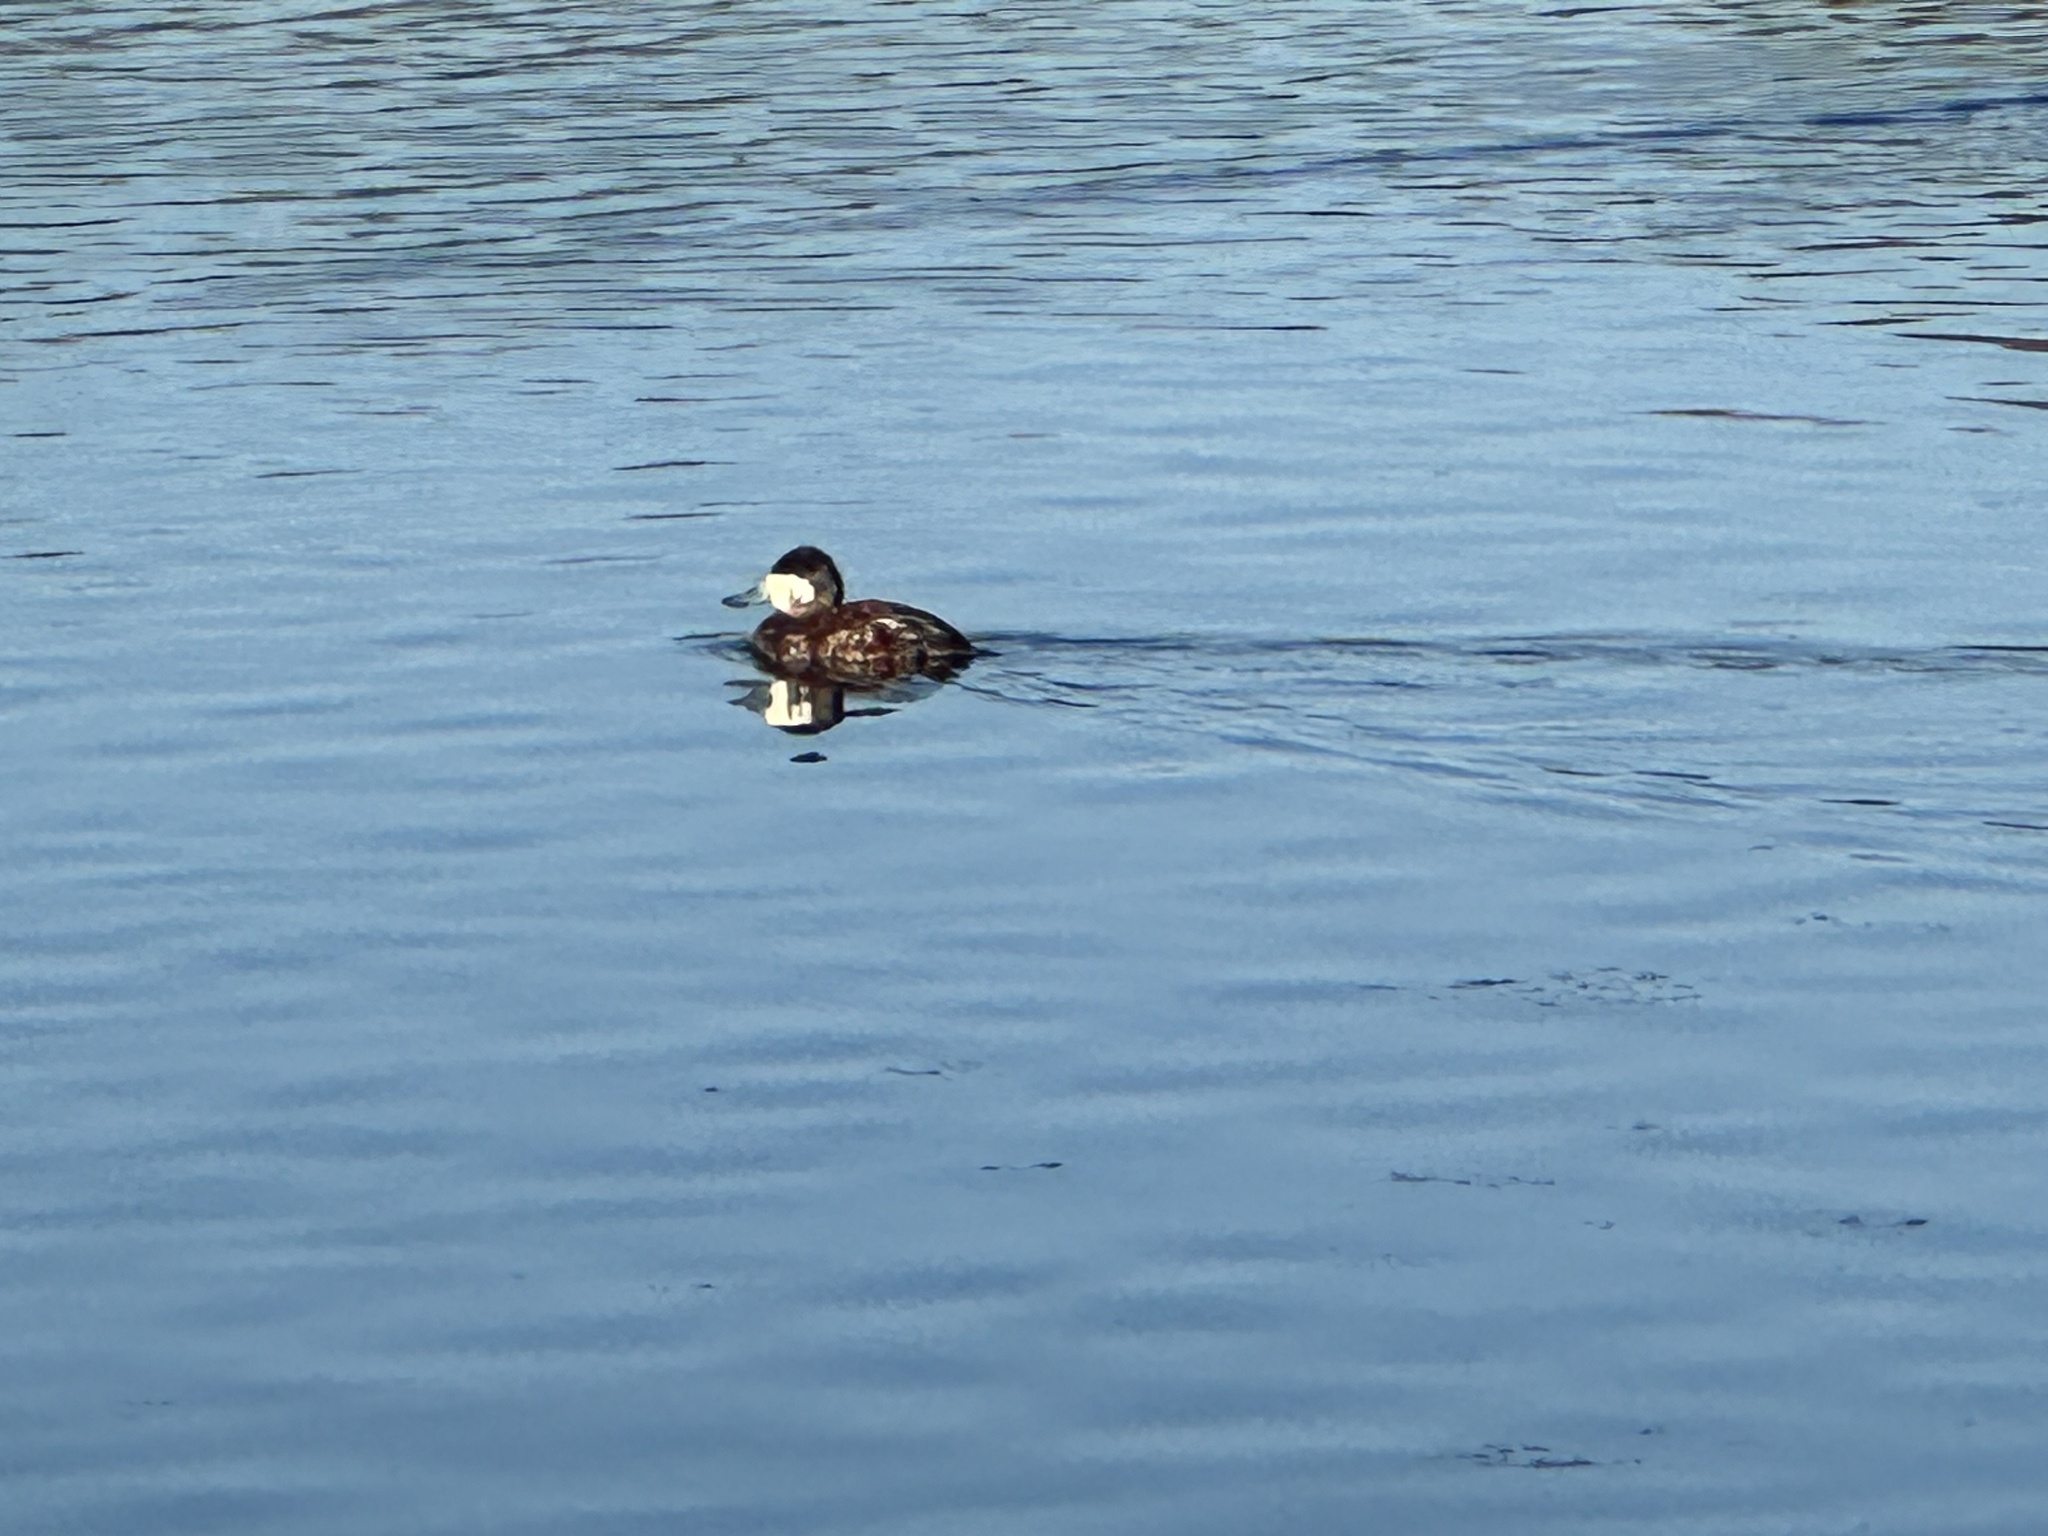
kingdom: Animalia
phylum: Chordata
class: Aves
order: Anseriformes
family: Anatidae
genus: Oxyura
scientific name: Oxyura jamaicensis
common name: Ruddy duck
